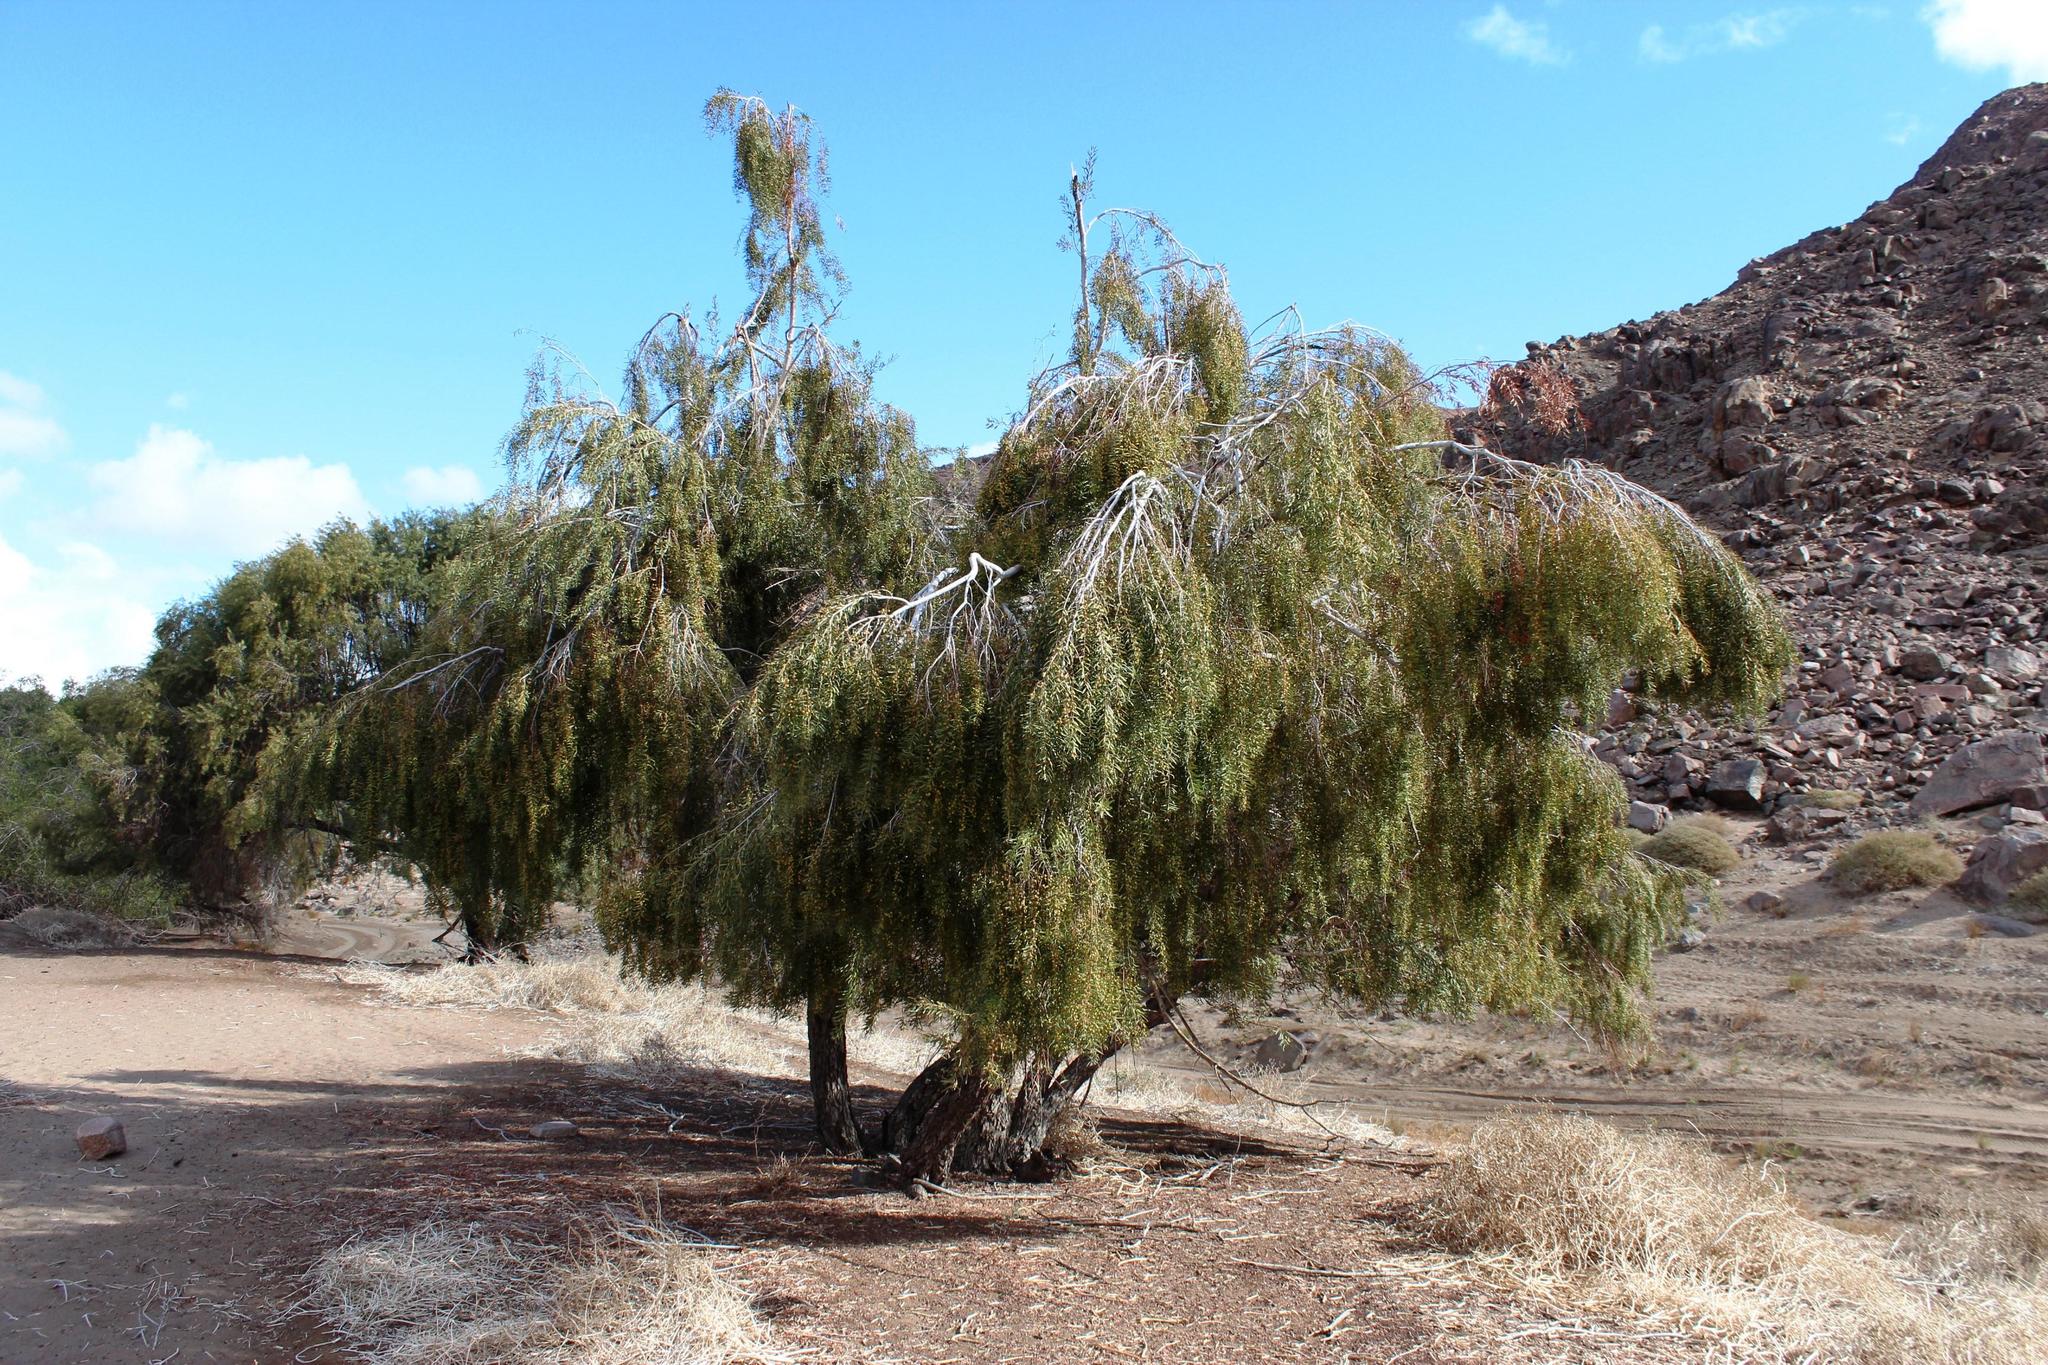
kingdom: Plantae
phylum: Tracheophyta
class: Magnoliopsida
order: Ericales
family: Ebenaceae
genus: Euclea
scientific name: Euclea pseudebenus
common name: Black ebony
